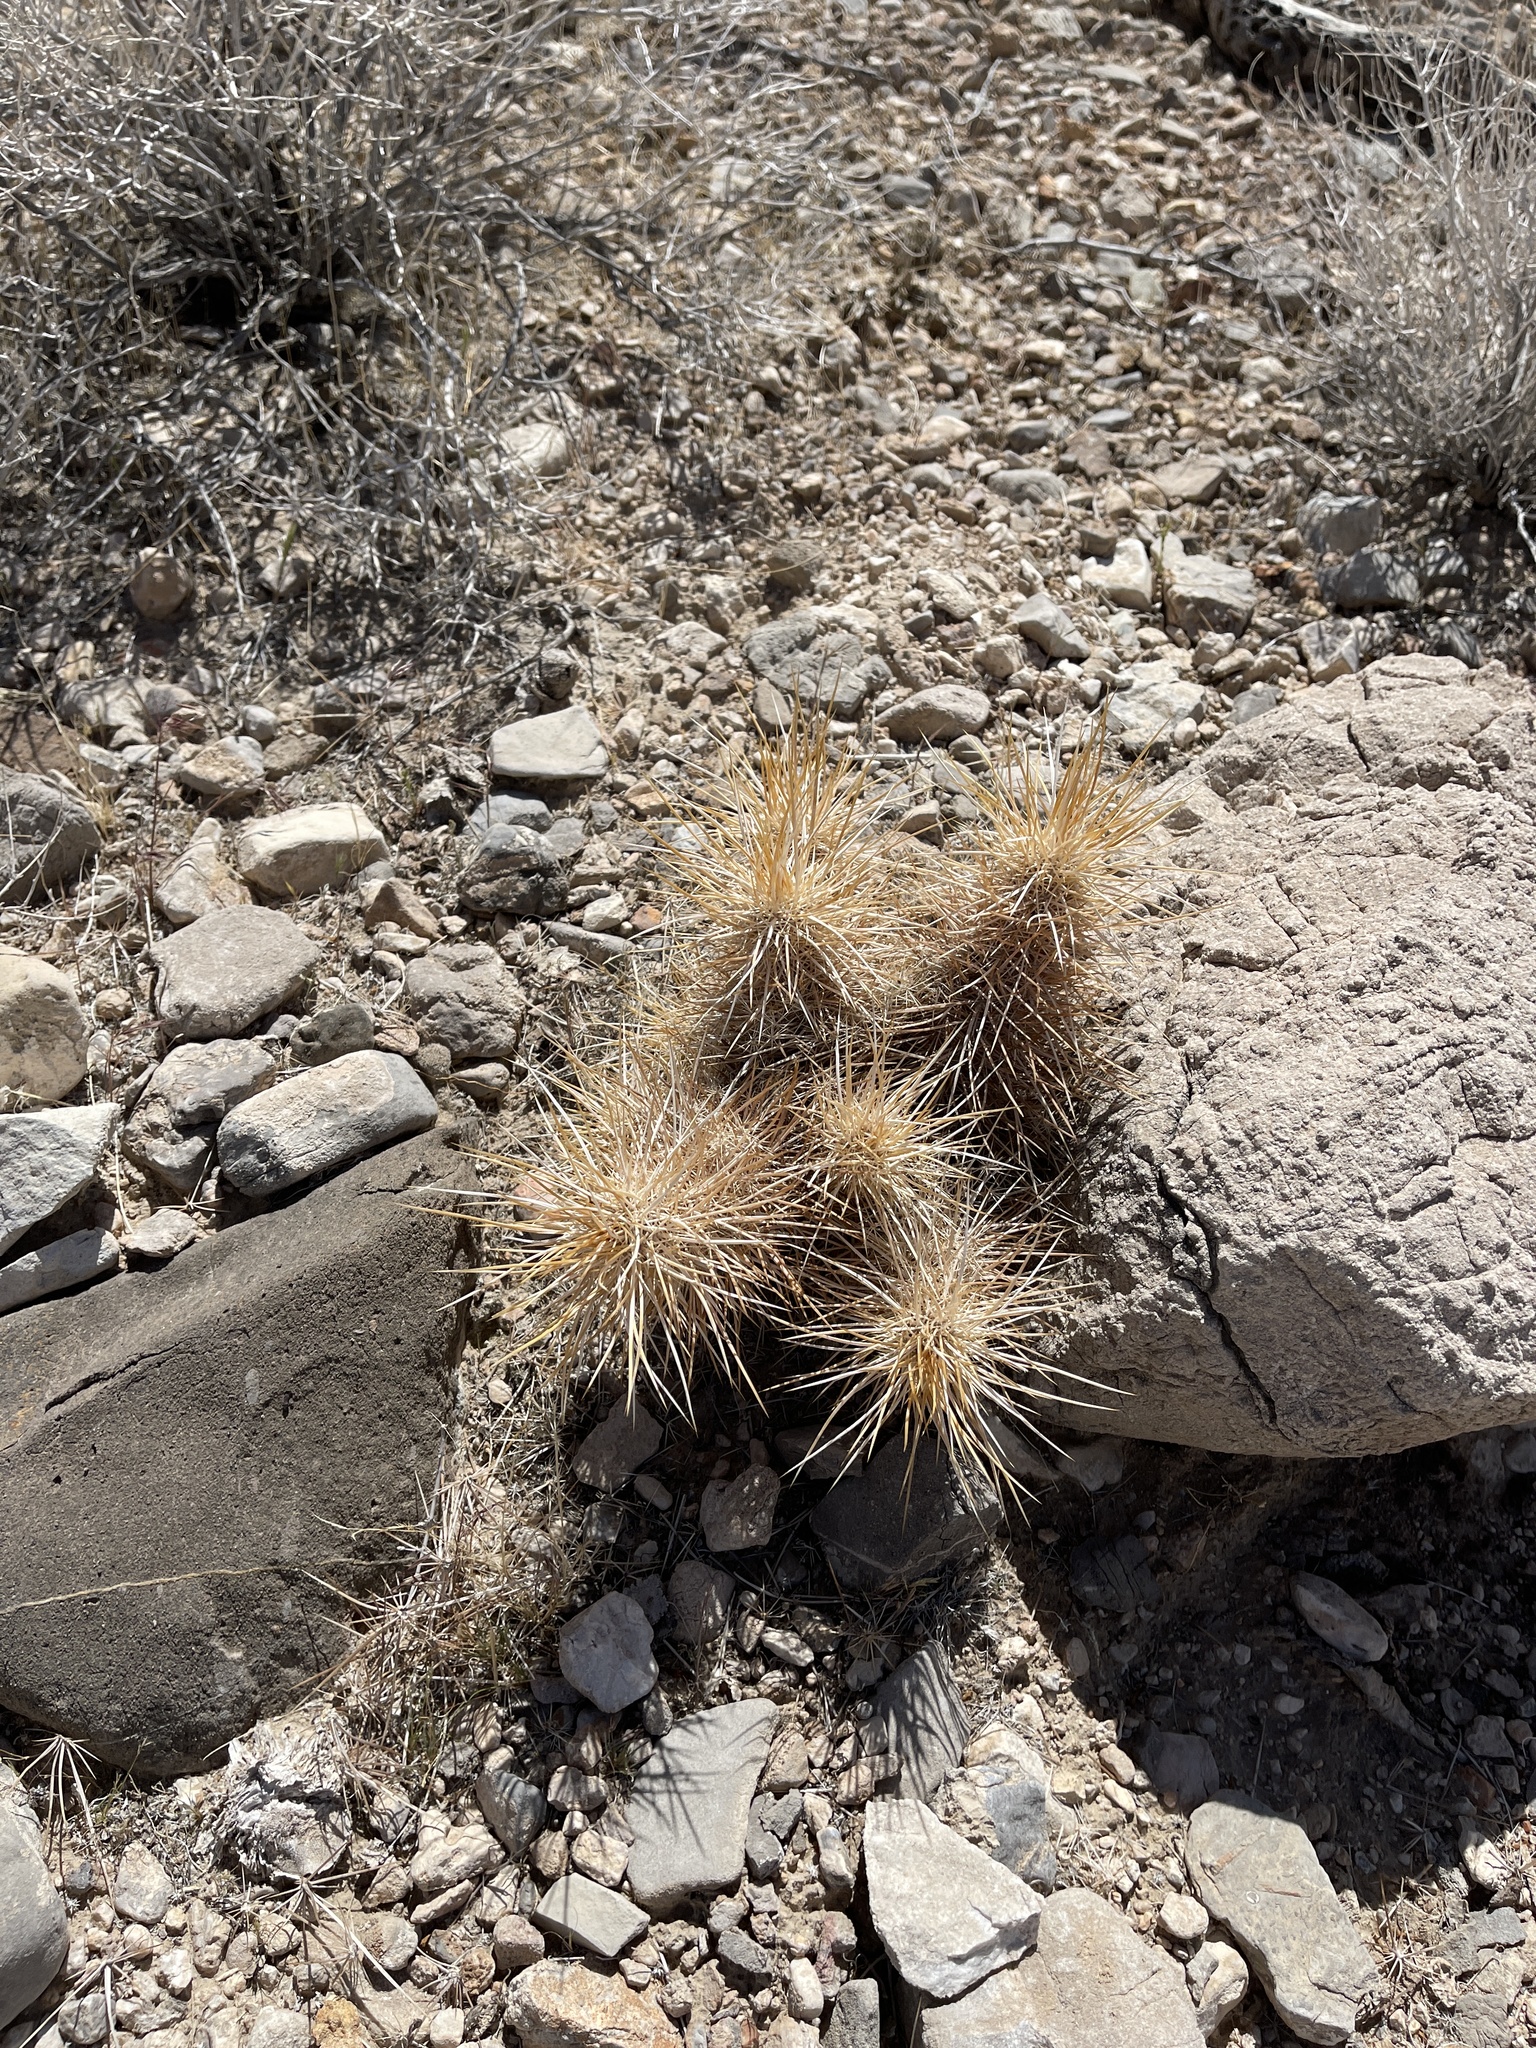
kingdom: Plantae
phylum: Tracheophyta
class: Magnoliopsida
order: Caryophyllales
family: Cactaceae
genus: Echinocereus
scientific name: Echinocereus engelmannii
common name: Engelmann's hedgehog cactus
